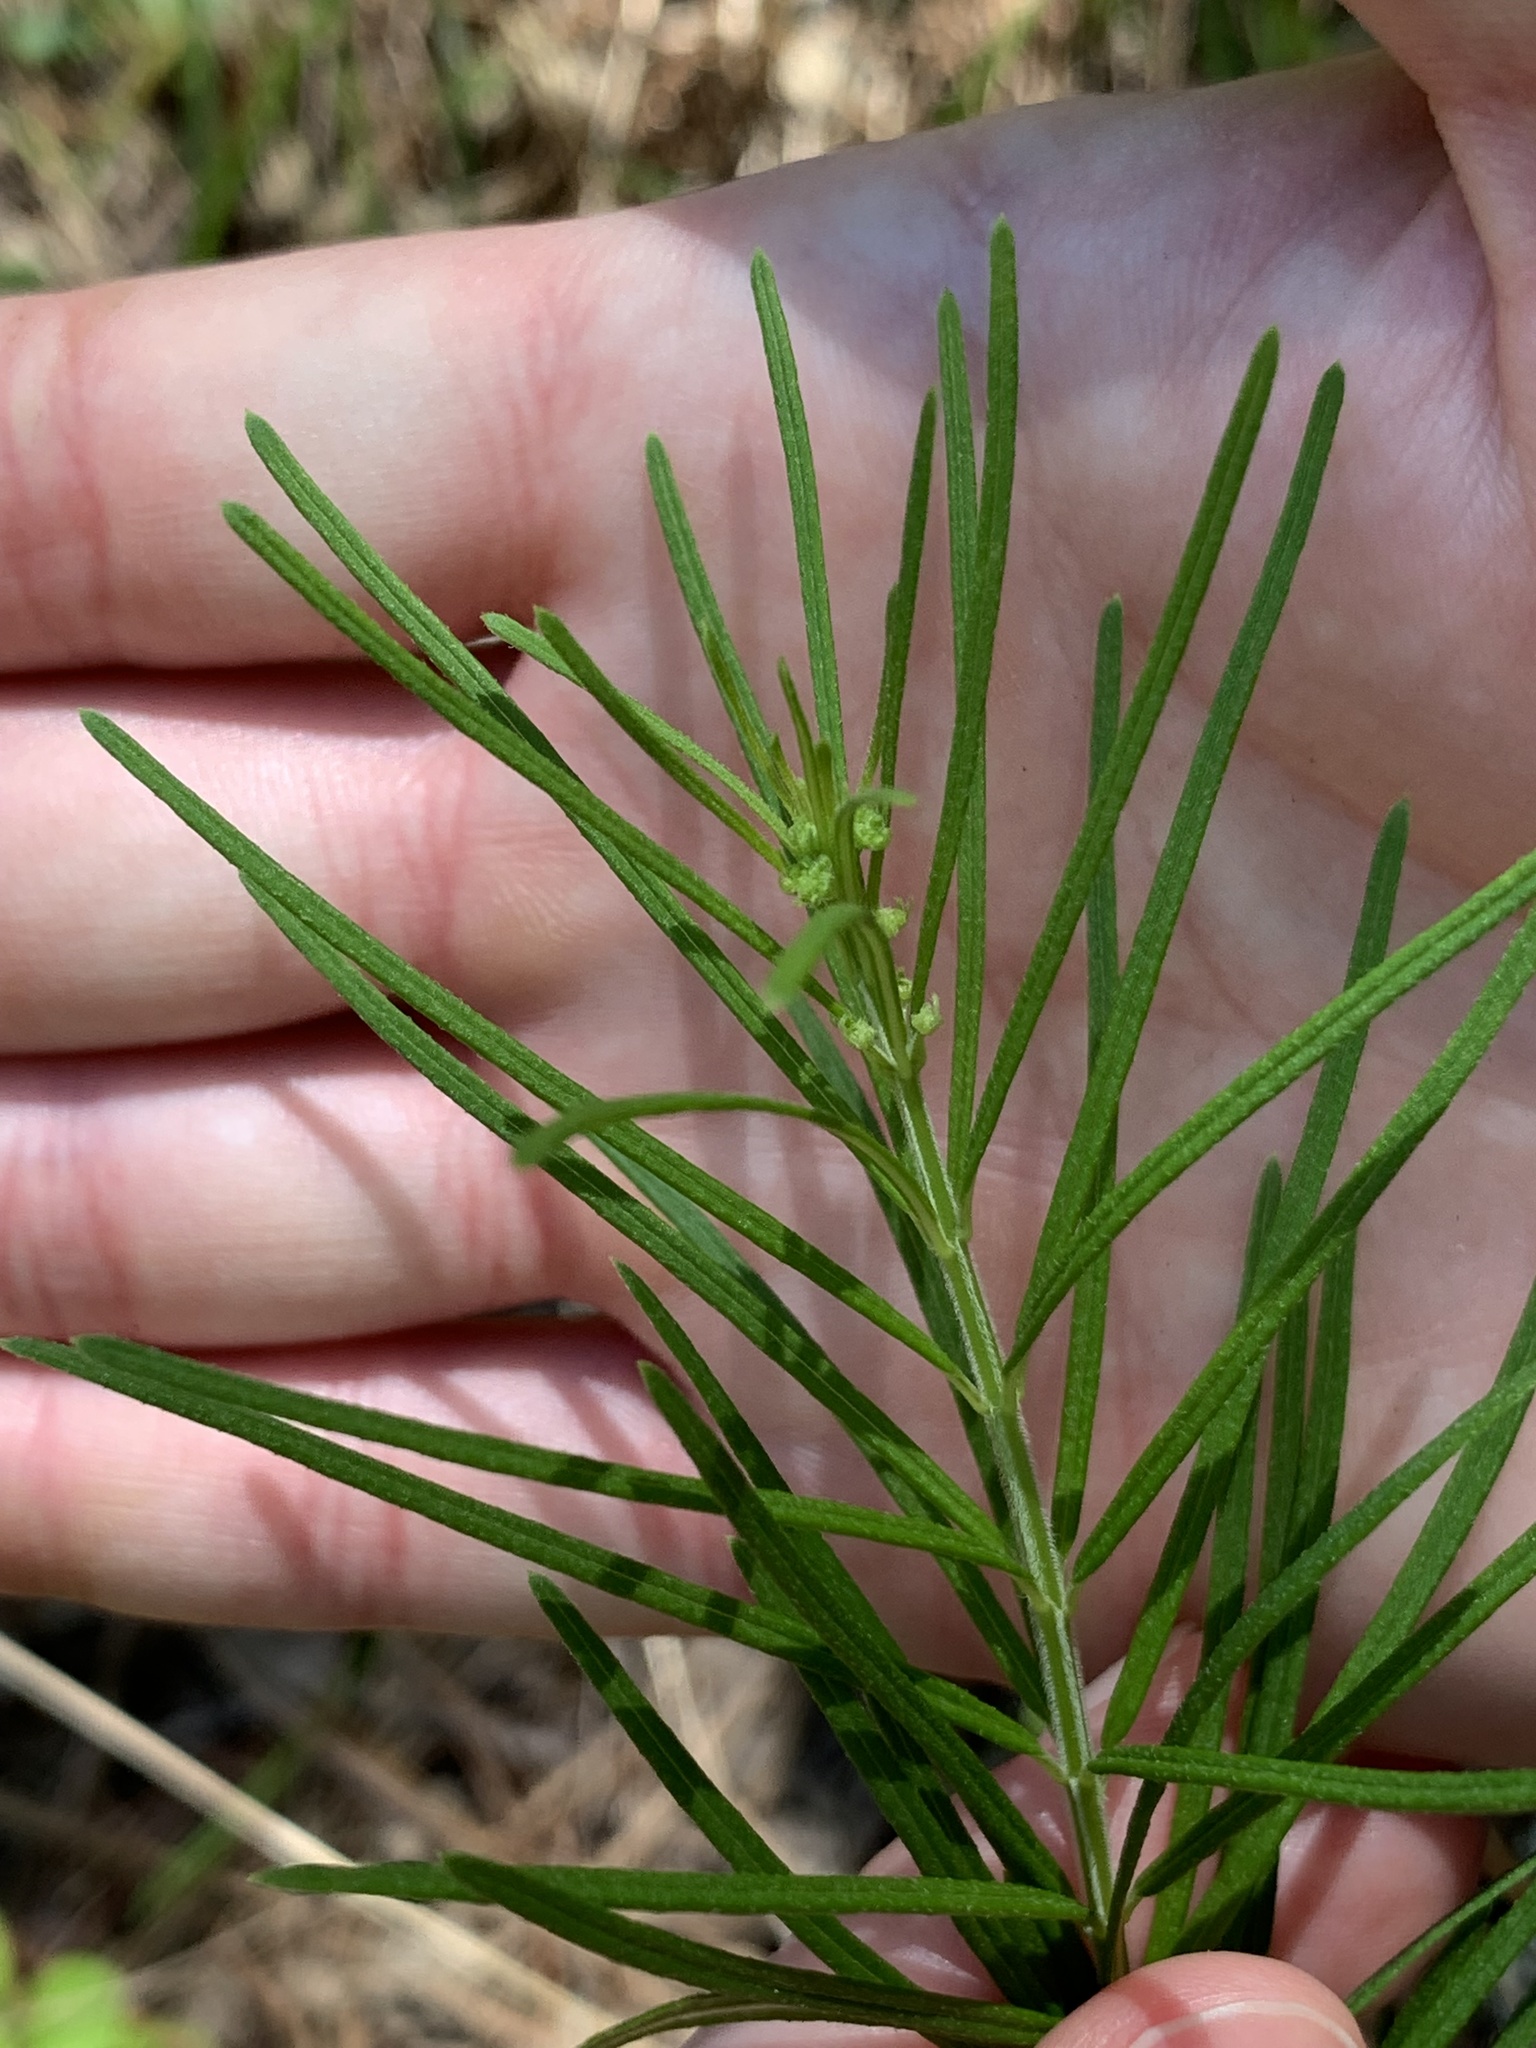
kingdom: Plantae
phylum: Tracheophyta
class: Magnoliopsida
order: Gentianales
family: Apocynaceae
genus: Asclepias
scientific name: Asclepias verticillata
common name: Eastern whorled milkweed
